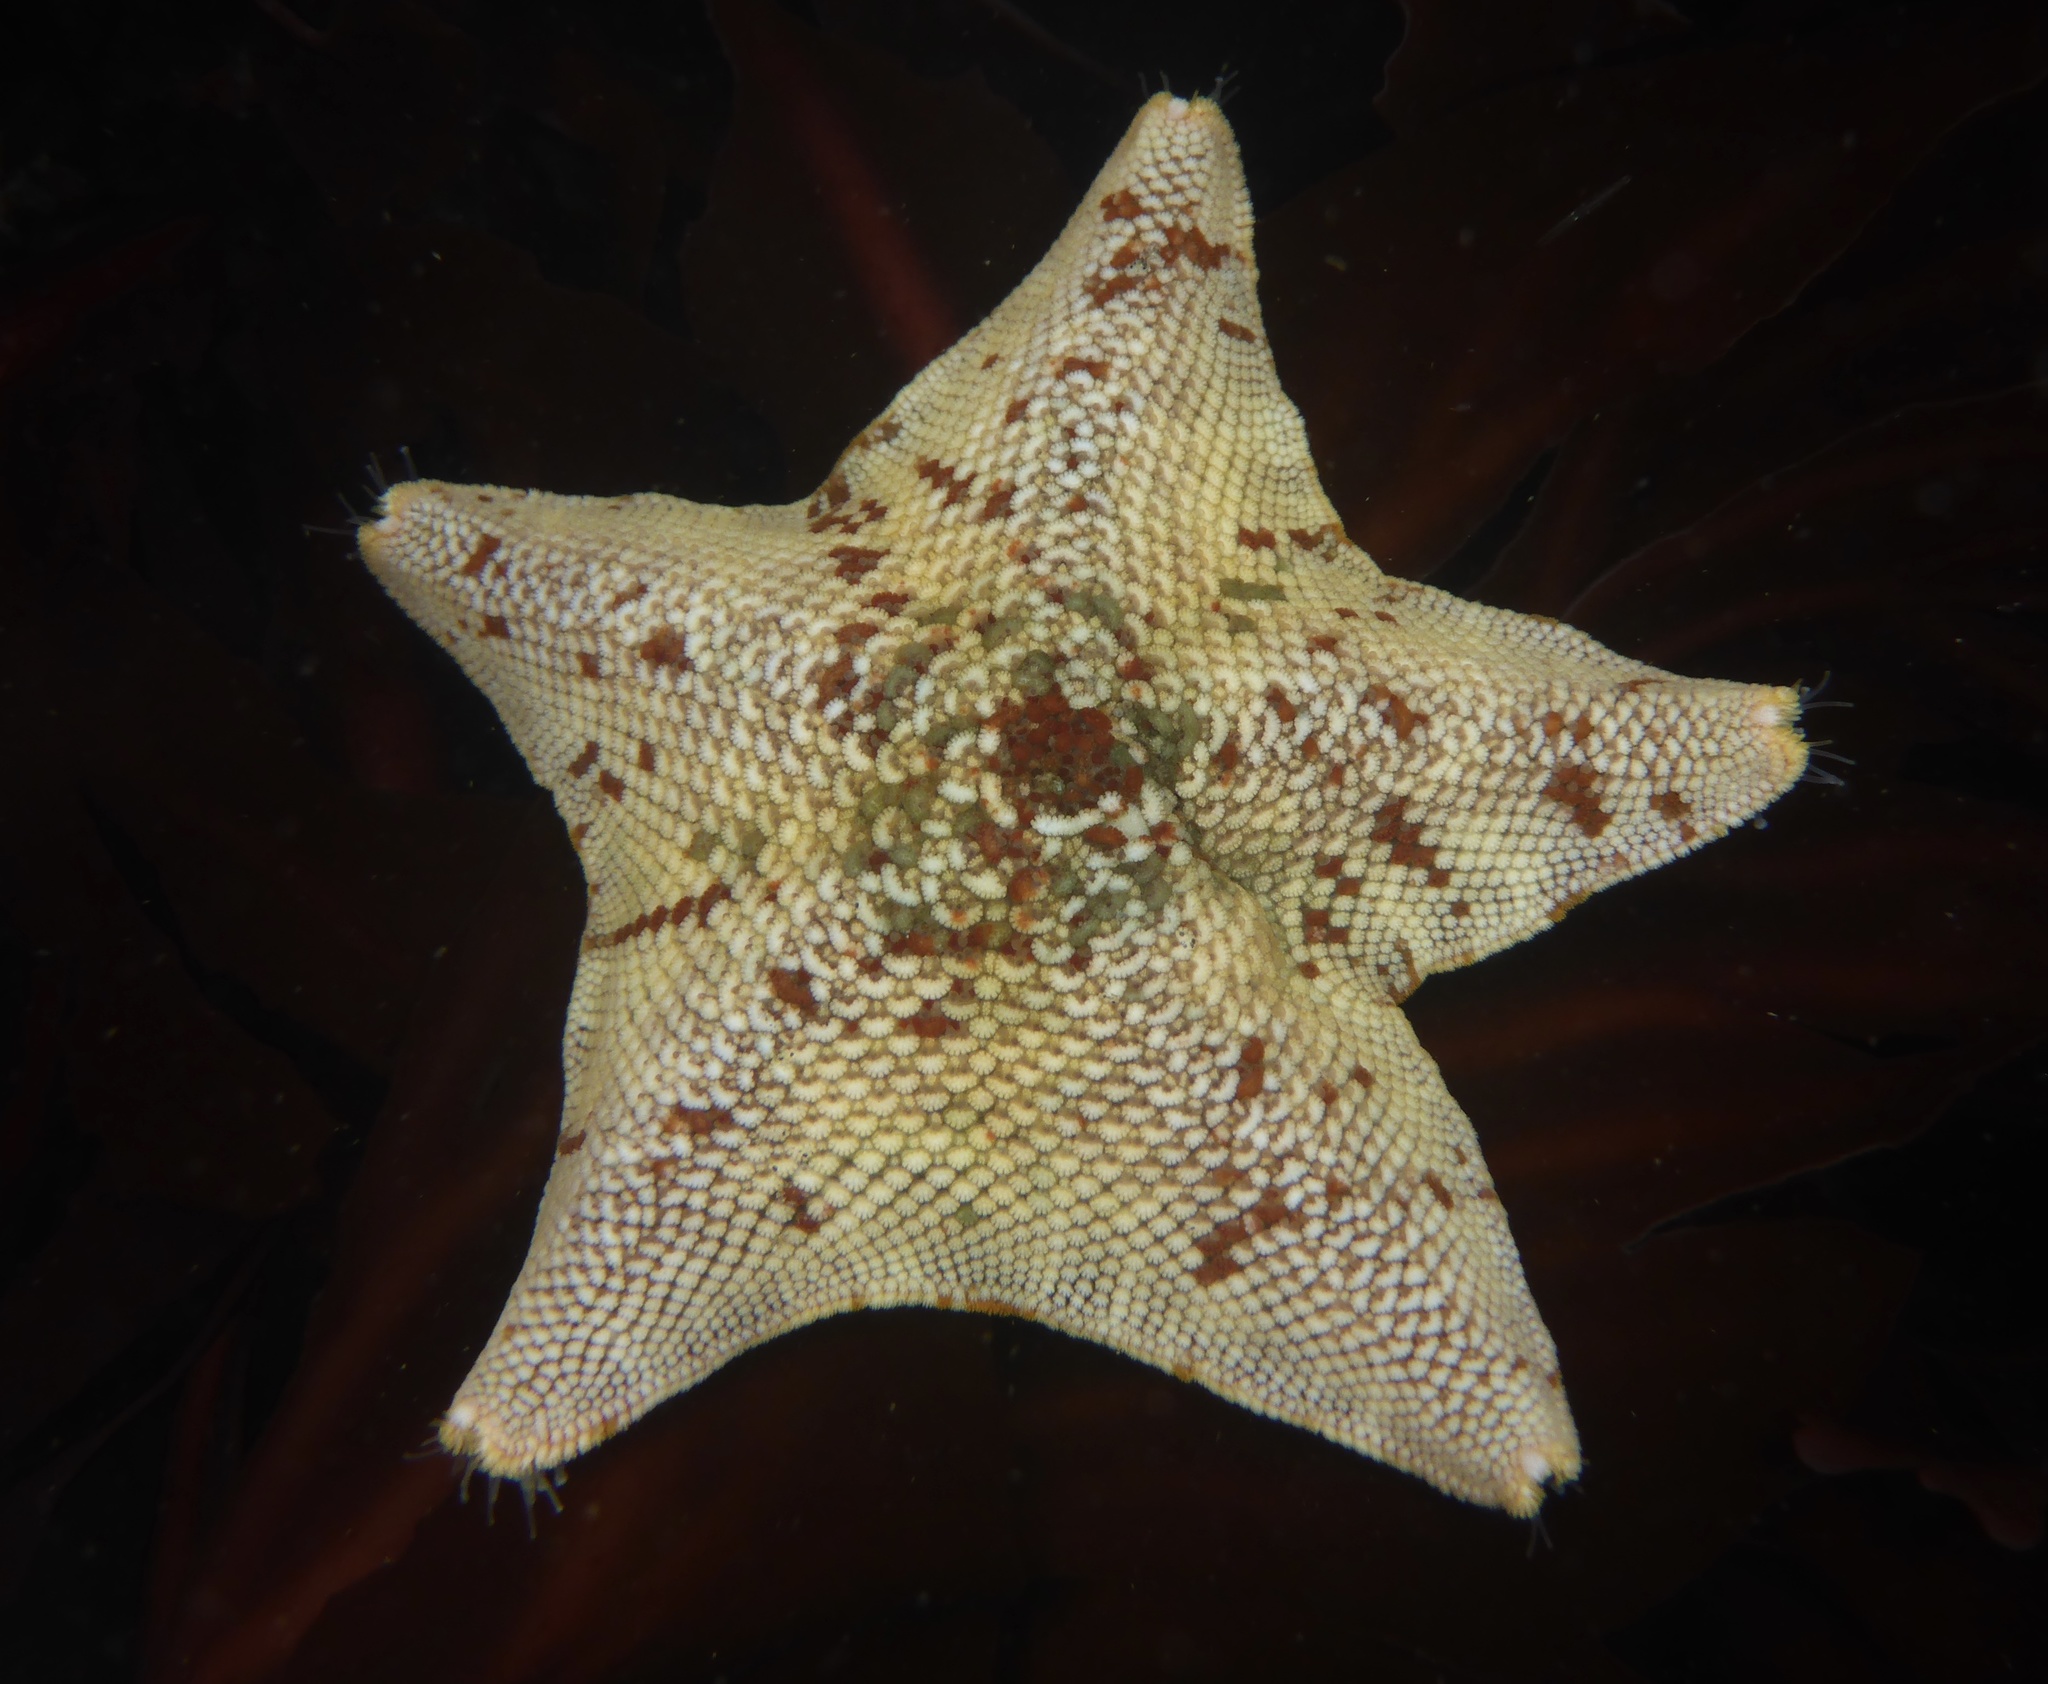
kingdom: Animalia
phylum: Echinodermata
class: Asteroidea
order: Valvatida
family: Asterinidae
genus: Patiria
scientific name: Patiria miniata
